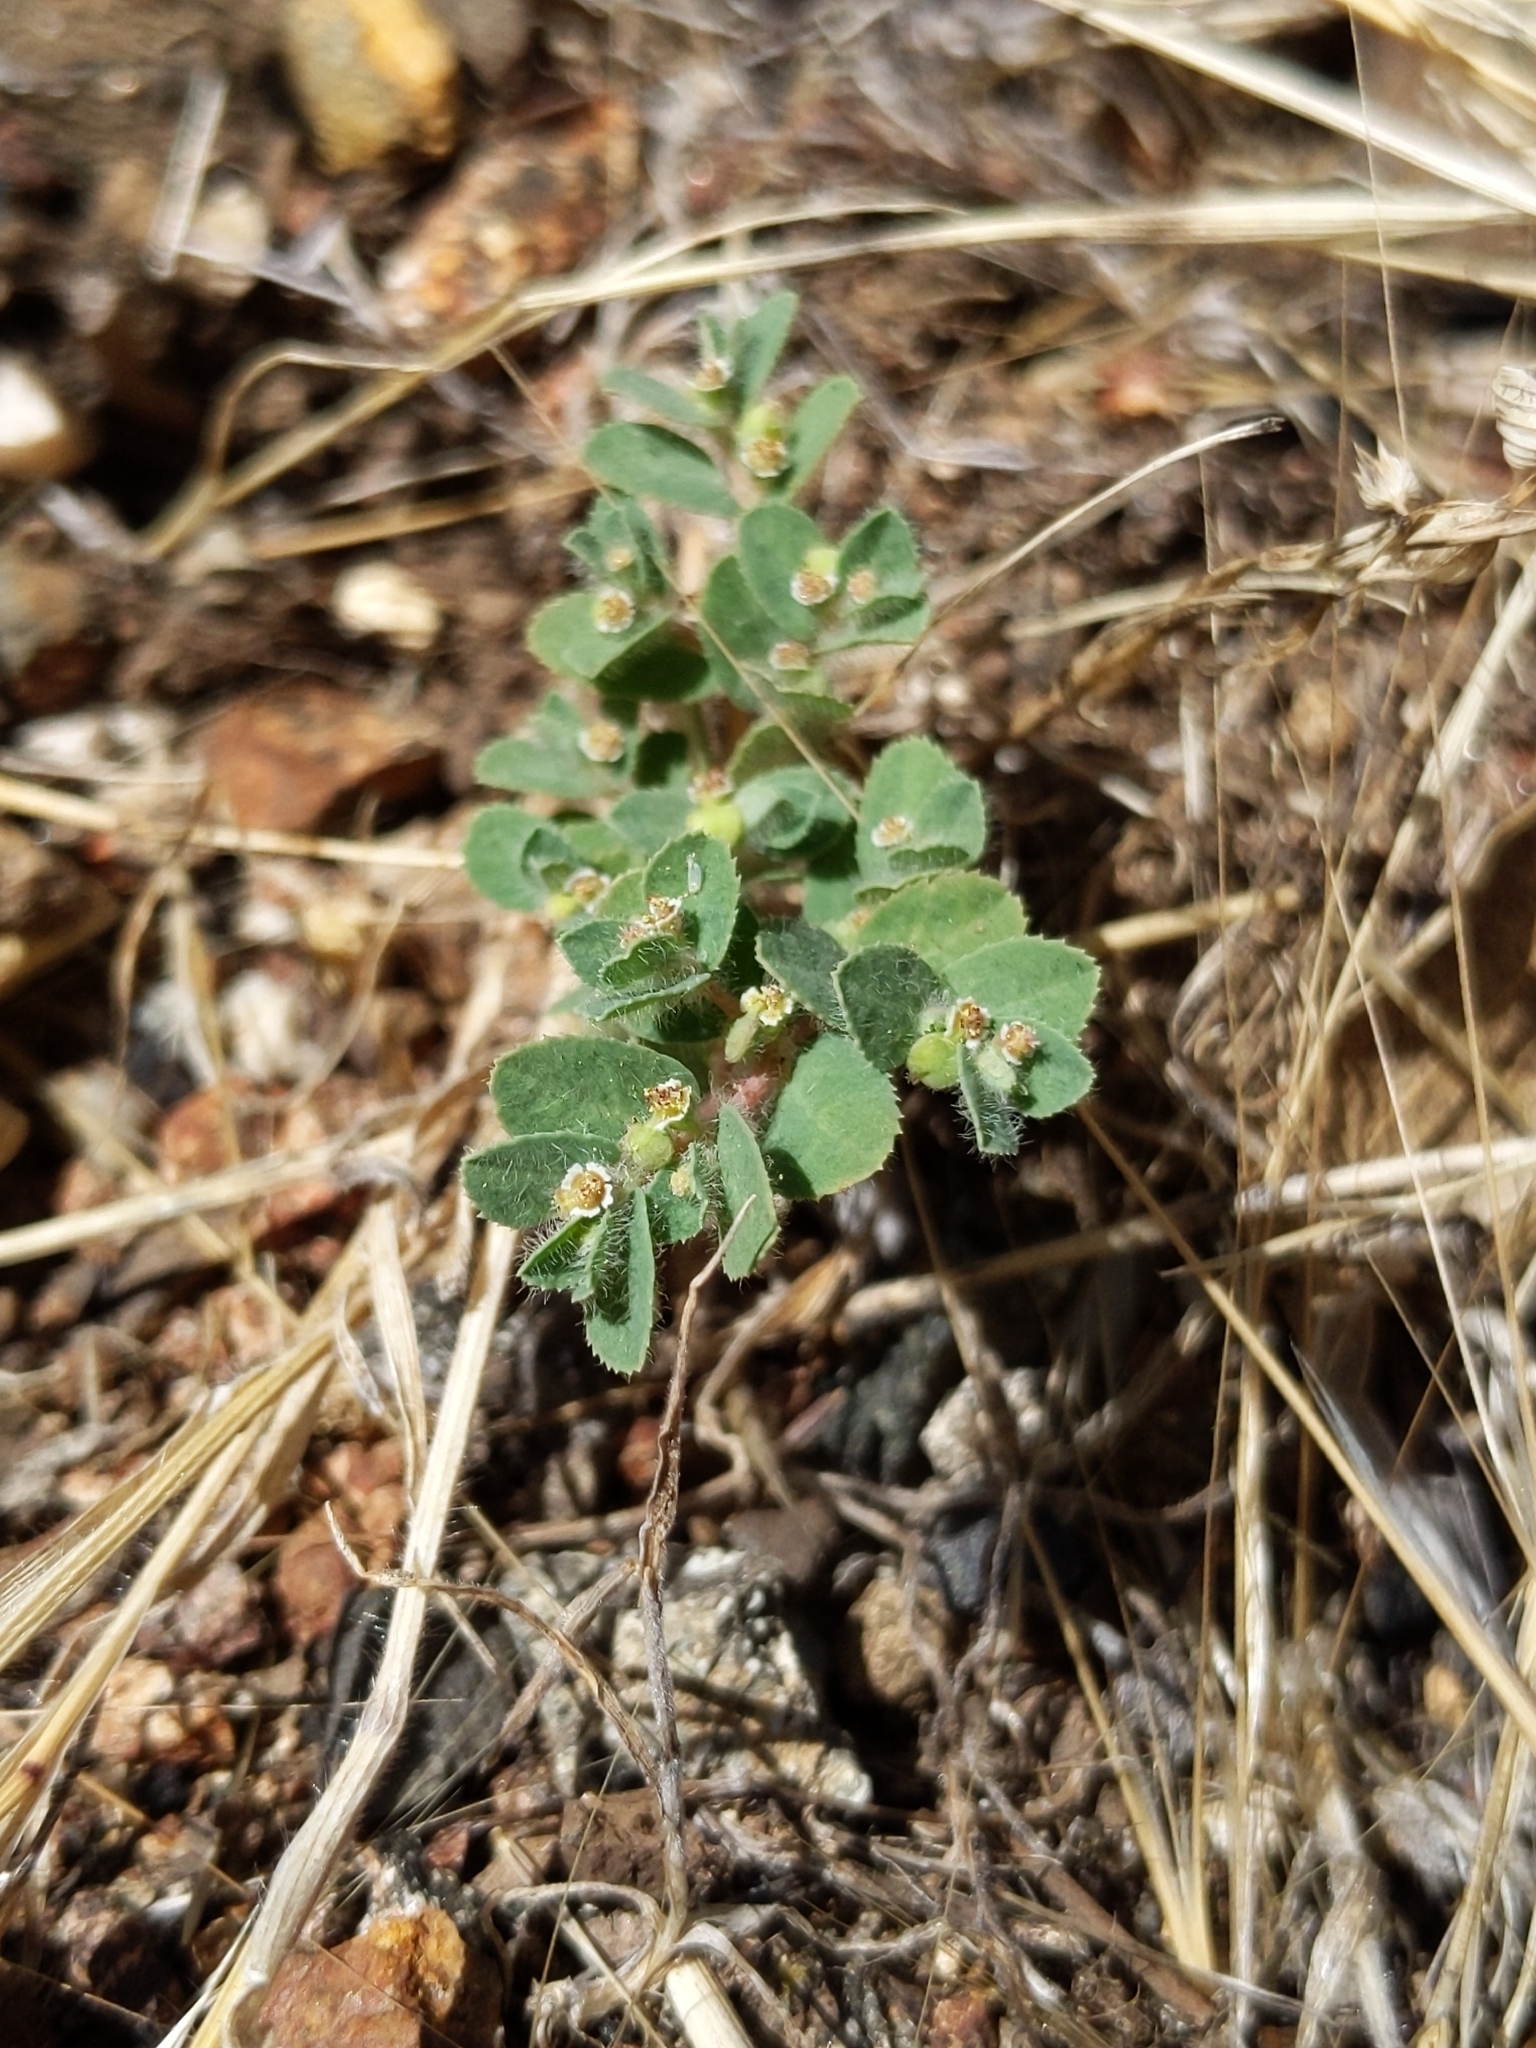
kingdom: Plantae
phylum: Tracheophyta
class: Magnoliopsida
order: Malpighiales
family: Euphorbiaceae
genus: Euphorbia
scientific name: Euphorbia serpillifolia
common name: Thyme-leaf spurge
